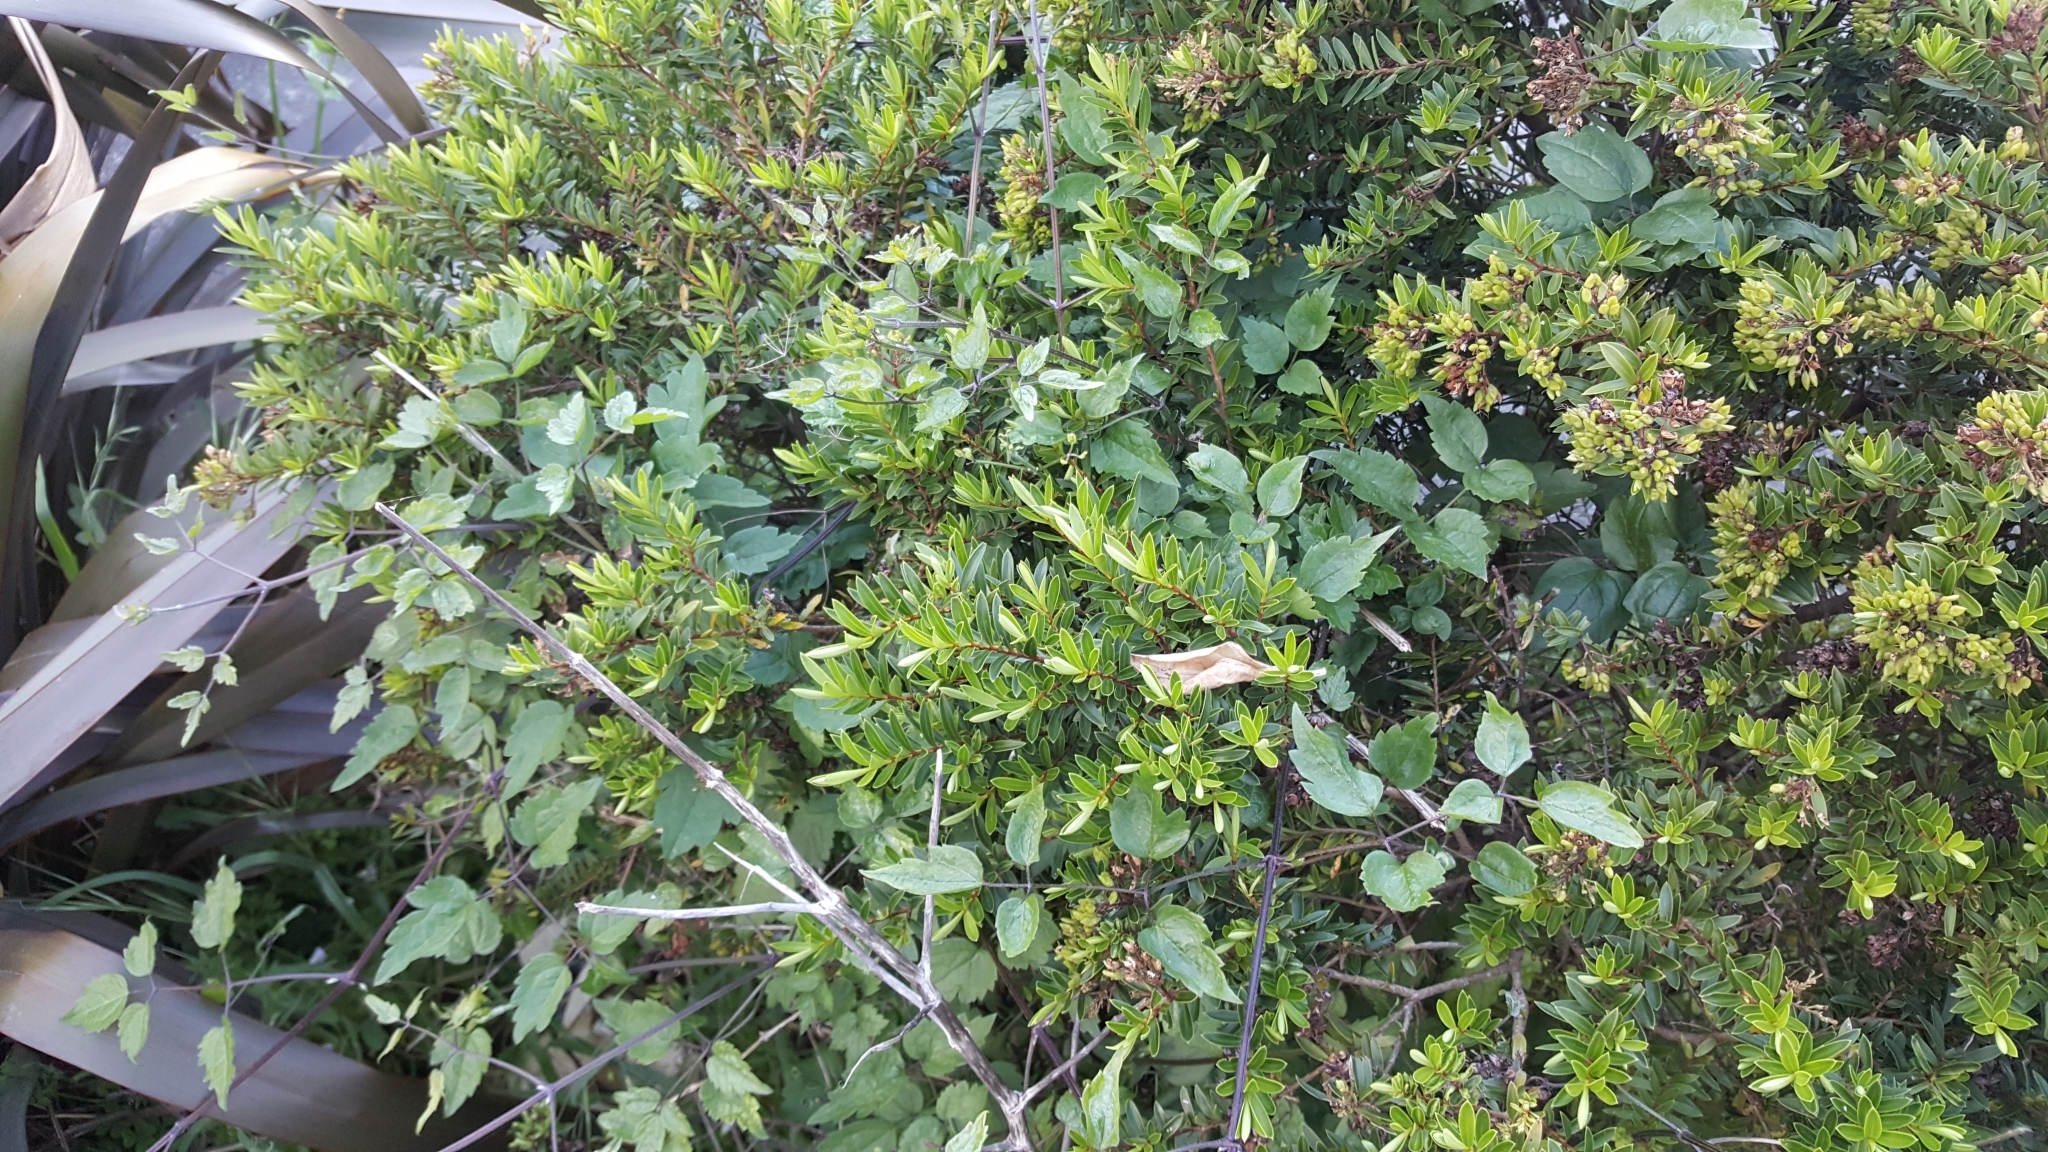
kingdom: Plantae
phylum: Tracheophyta
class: Magnoliopsida
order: Ranunculales
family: Ranunculaceae
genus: Clematis
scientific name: Clematis vitalba
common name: Evergreen clematis
